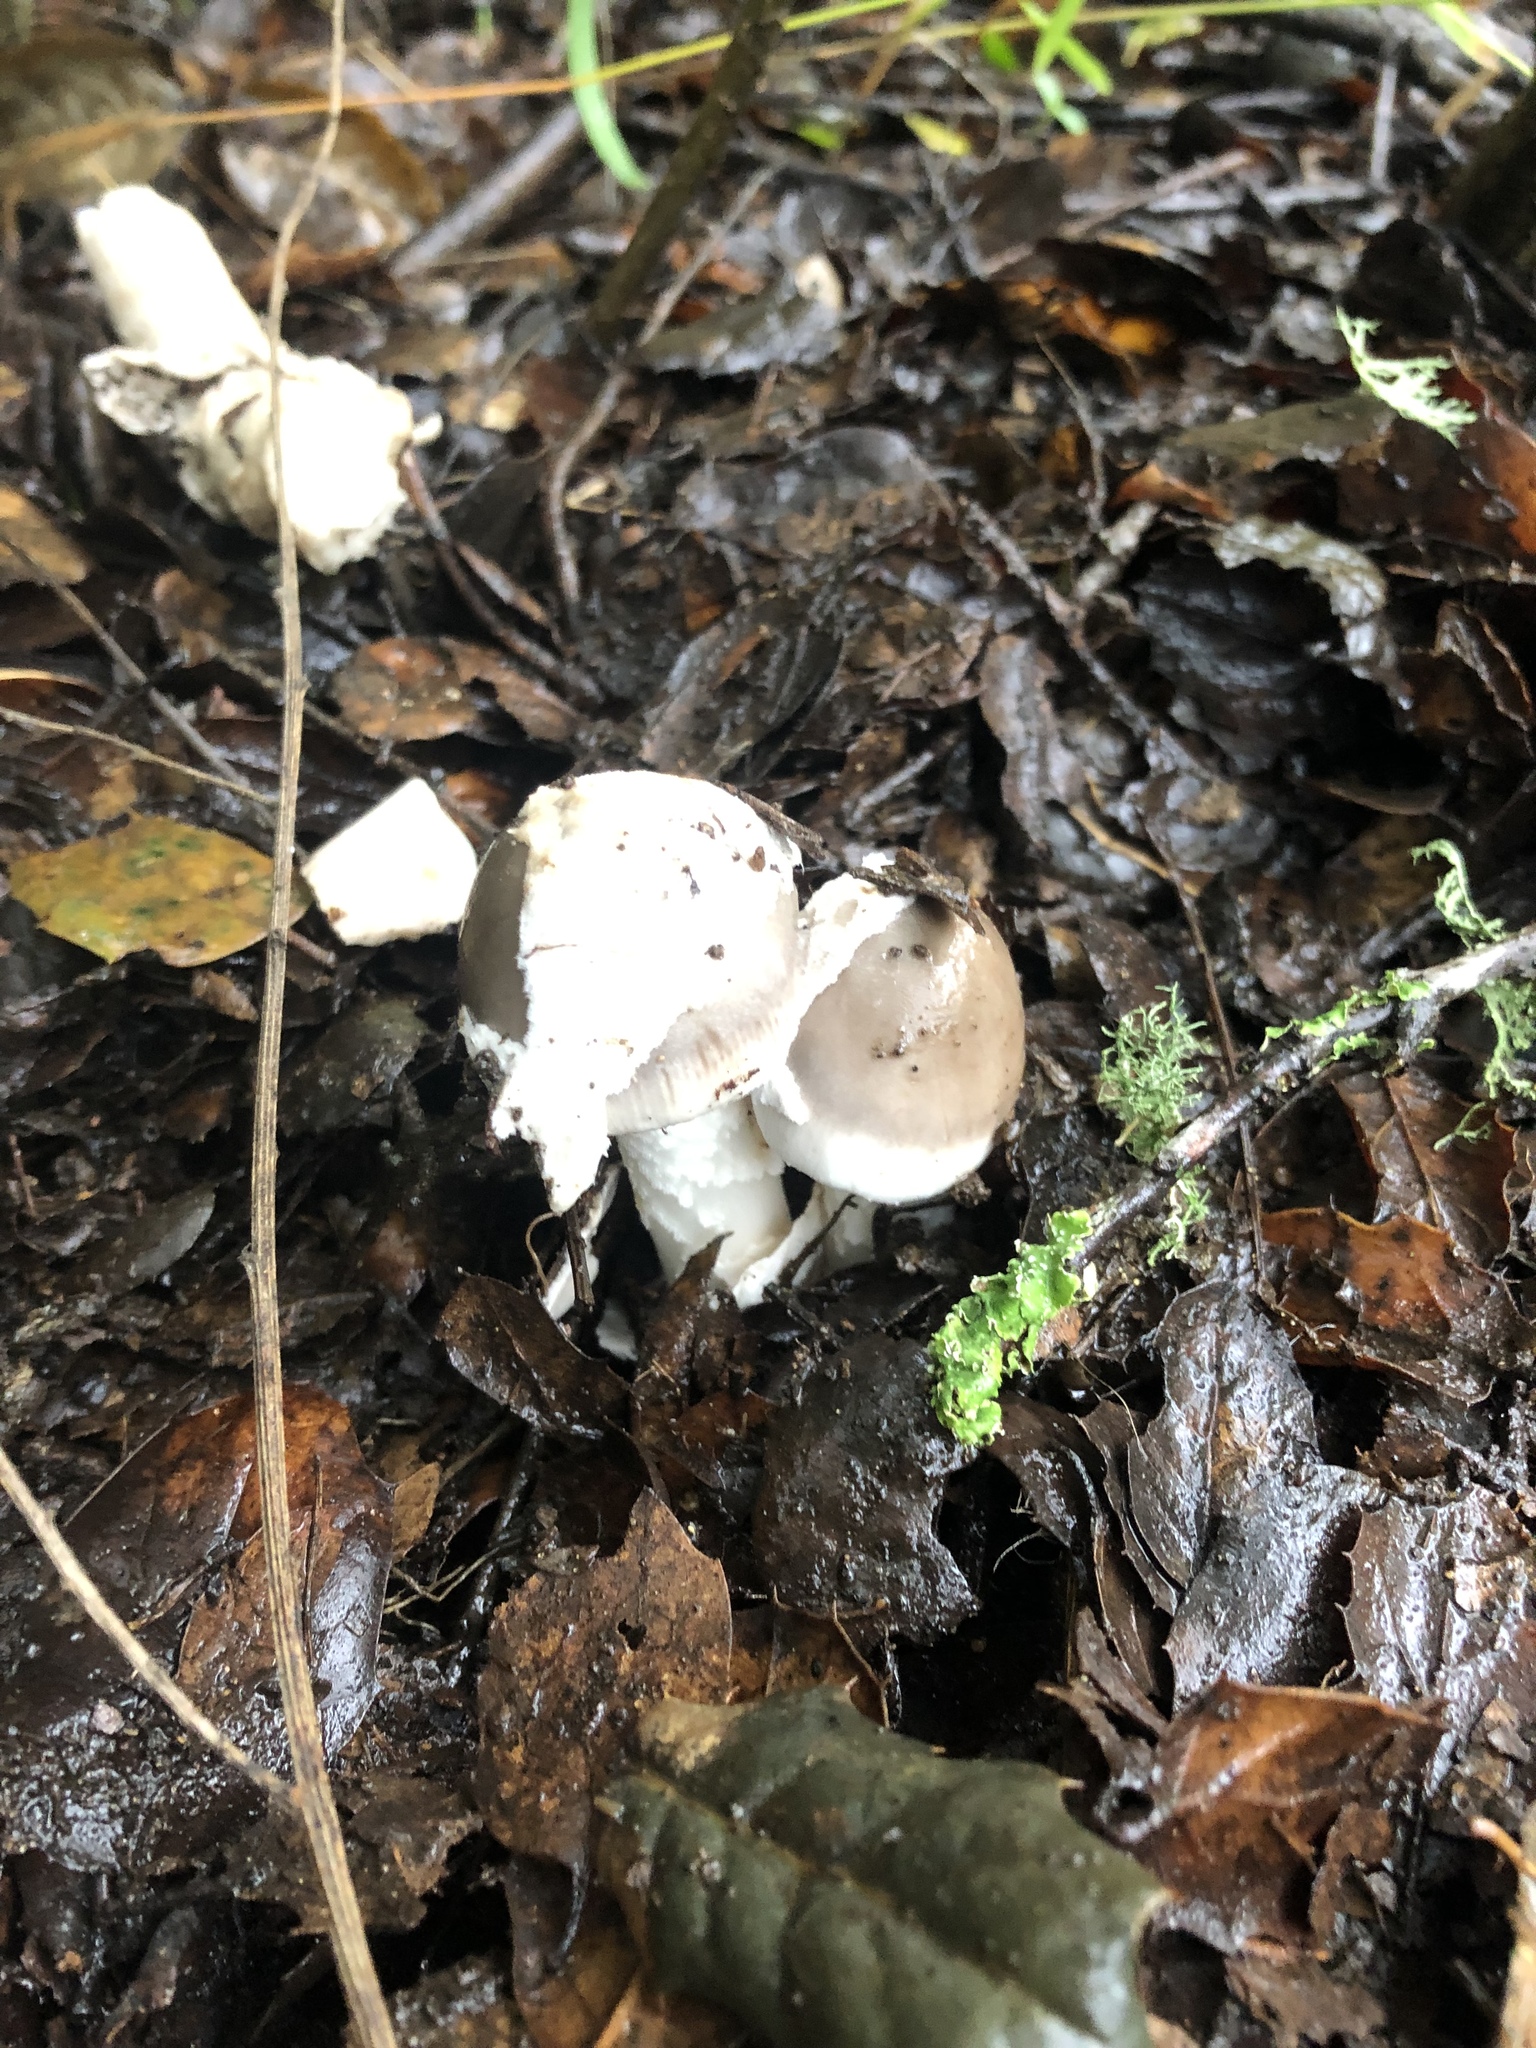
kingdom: Fungi
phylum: Basidiomycota
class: Agaricomycetes
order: Agaricales
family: Amanitaceae
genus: Amanita
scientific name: Amanita vaginata
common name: Grisette
